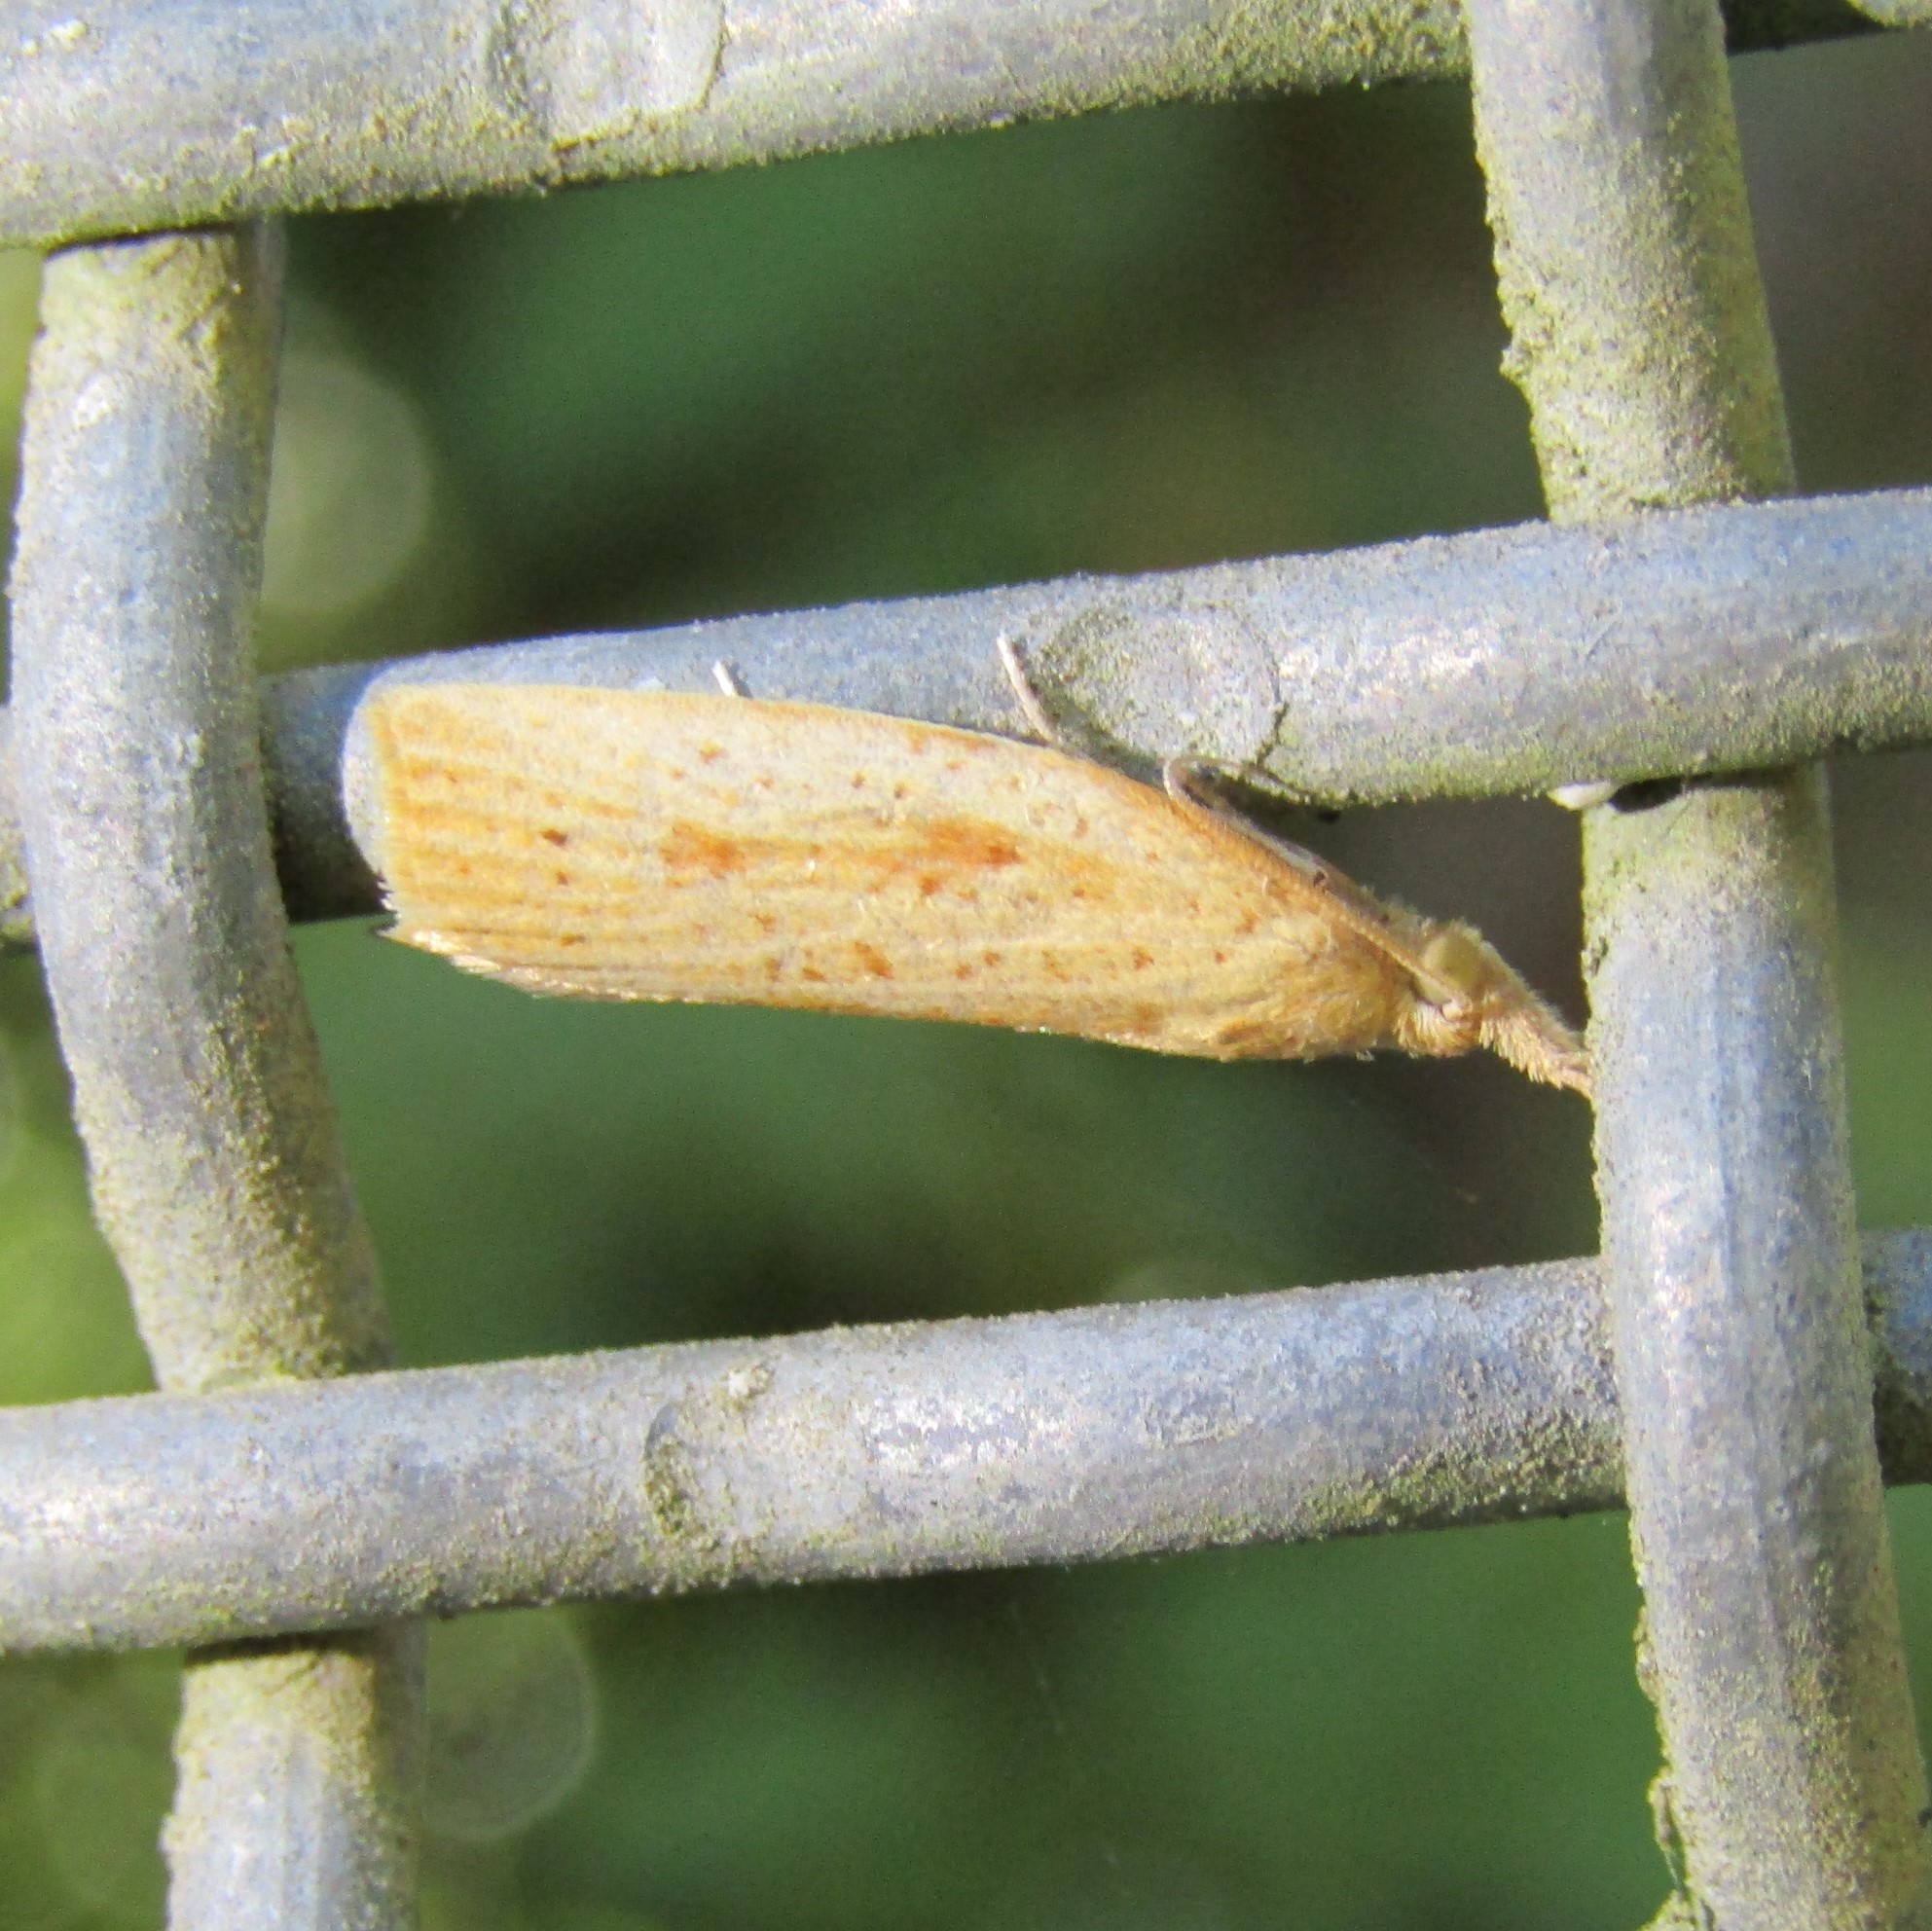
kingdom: Animalia
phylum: Arthropoda
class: Insecta
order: Lepidoptera
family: Tortricidae
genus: Apoctena
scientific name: Apoctena conditana
